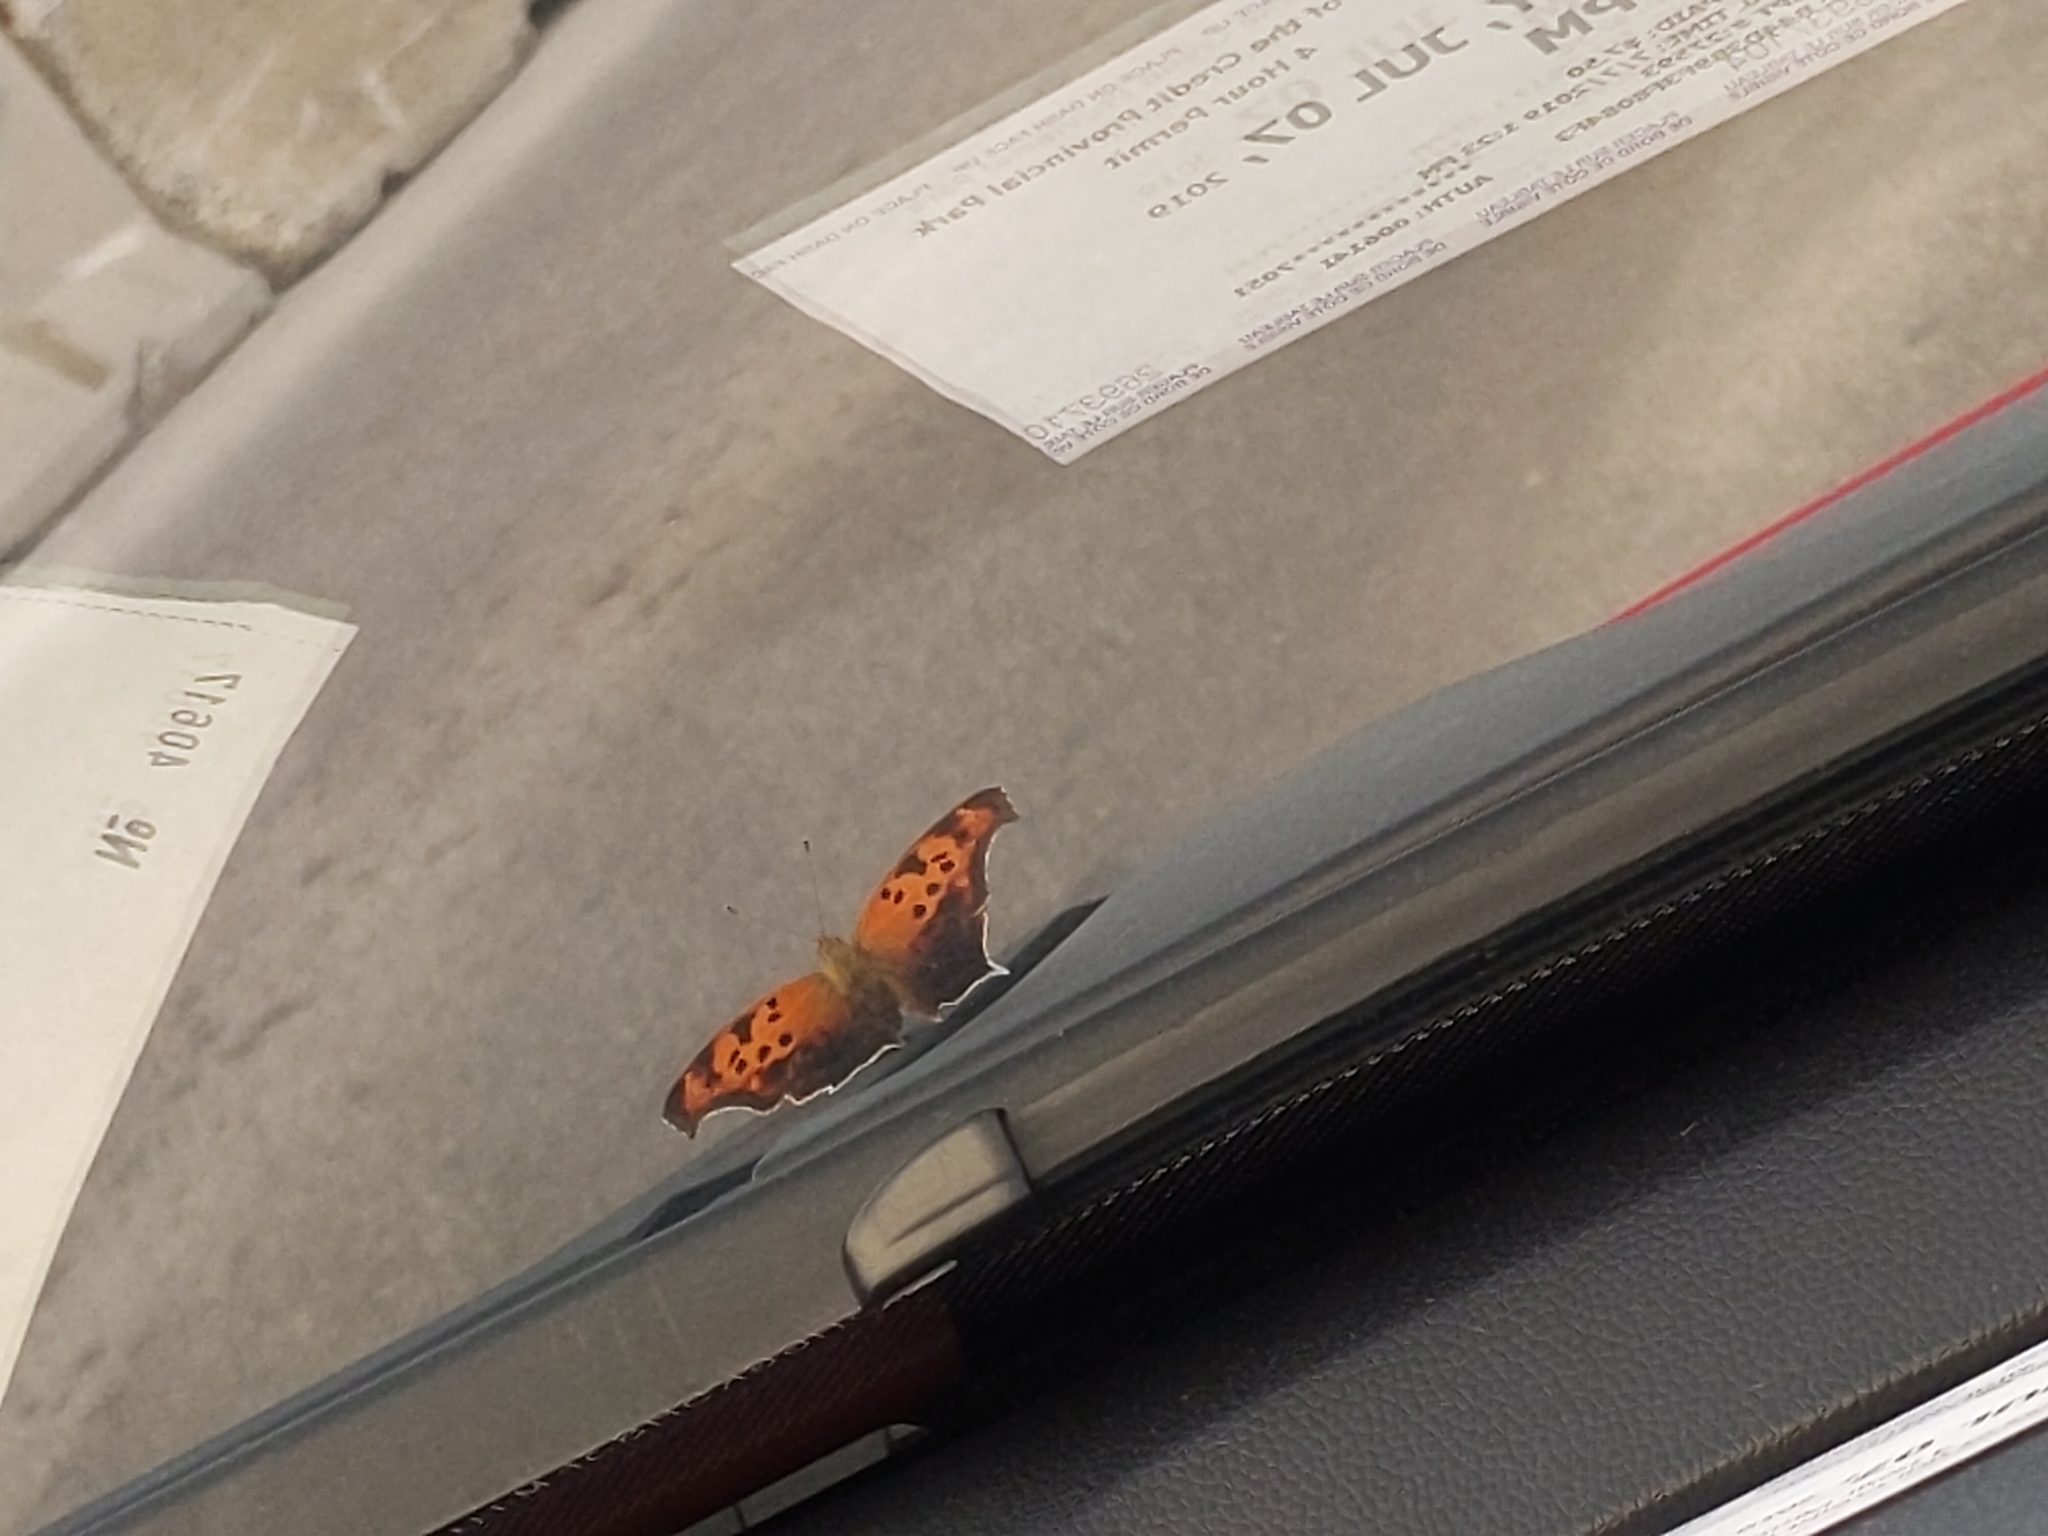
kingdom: Animalia
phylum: Arthropoda
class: Insecta
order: Lepidoptera
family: Nymphalidae
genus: Polygonia
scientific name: Polygonia interrogationis
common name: Question mark
